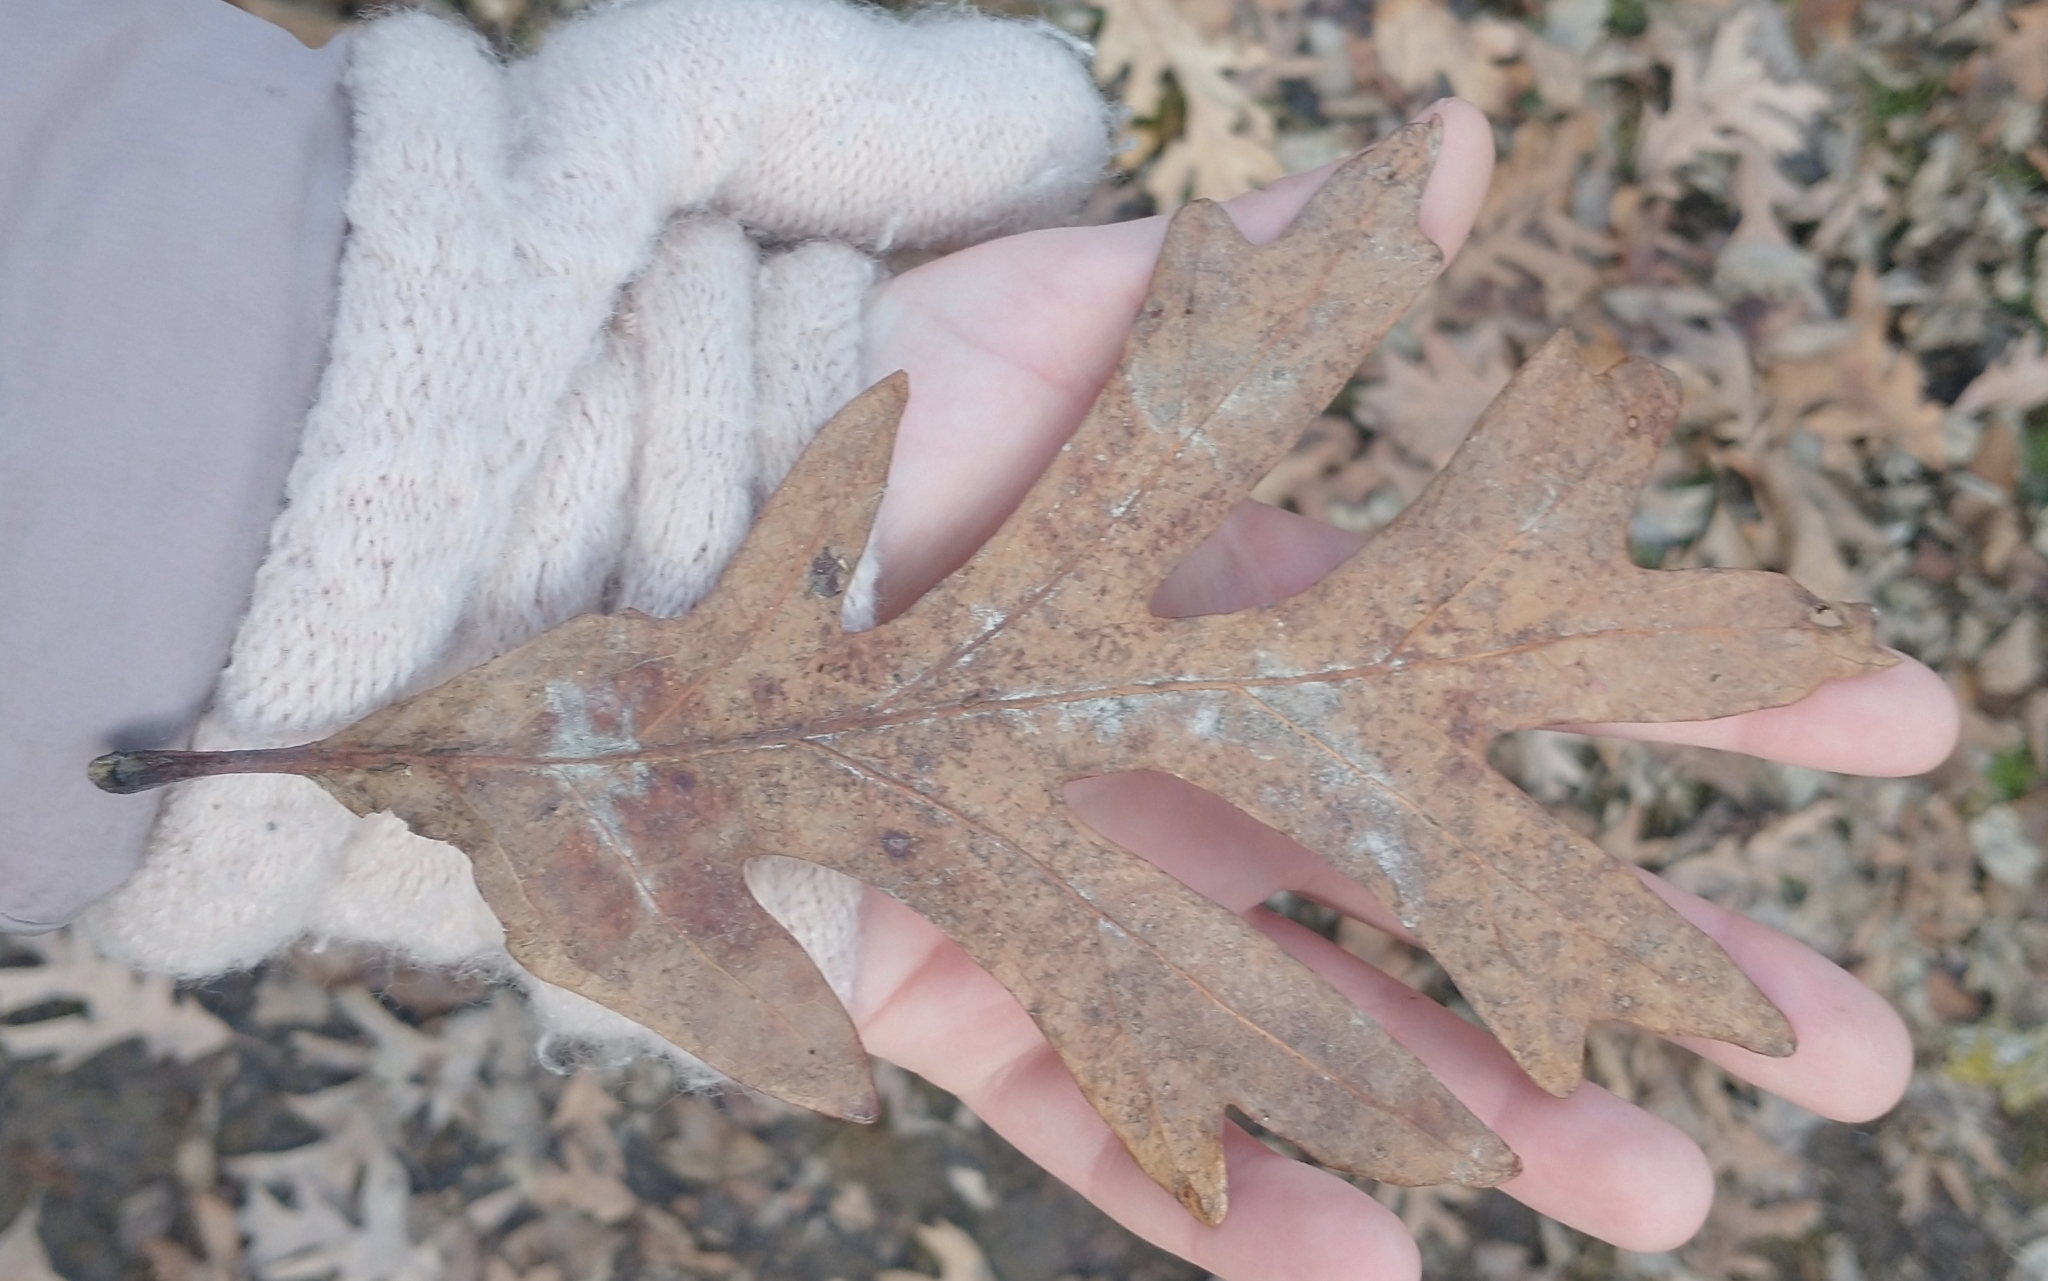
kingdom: Plantae
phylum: Tracheophyta
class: Magnoliopsida
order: Fagales
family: Fagaceae
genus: Quercus
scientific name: Quercus alba
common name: White oak
